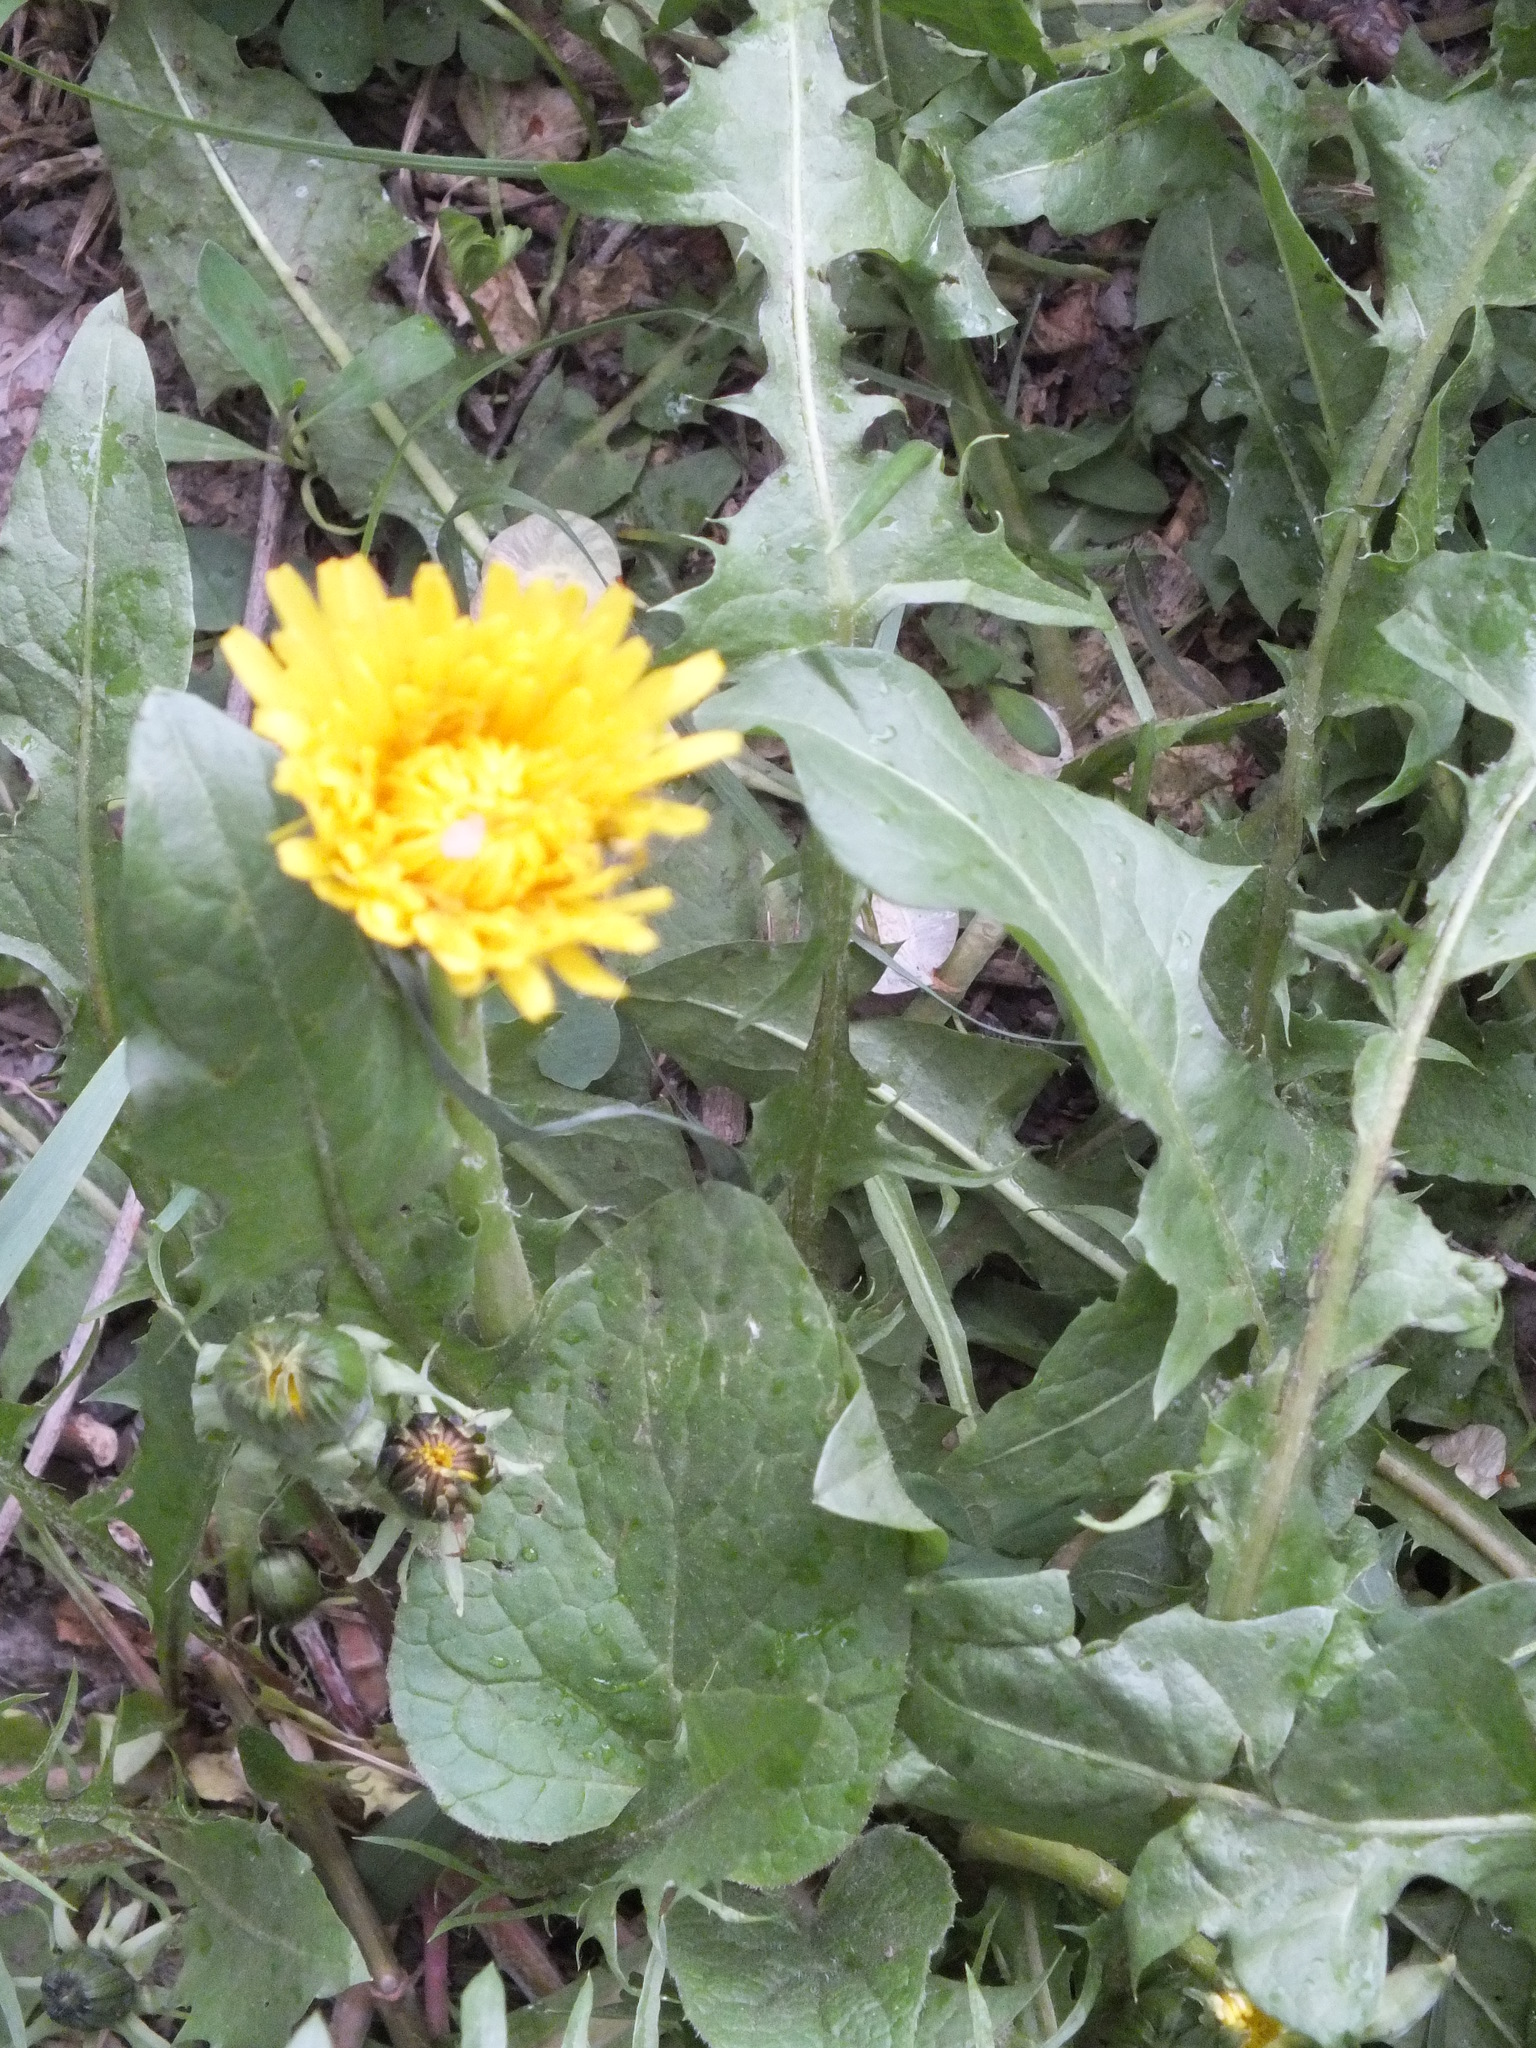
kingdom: Plantae
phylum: Tracheophyta
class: Magnoliopsida
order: Asterales
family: Asteraceae
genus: Taraxacum
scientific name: Taraxacum officinale
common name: Common dandelion
